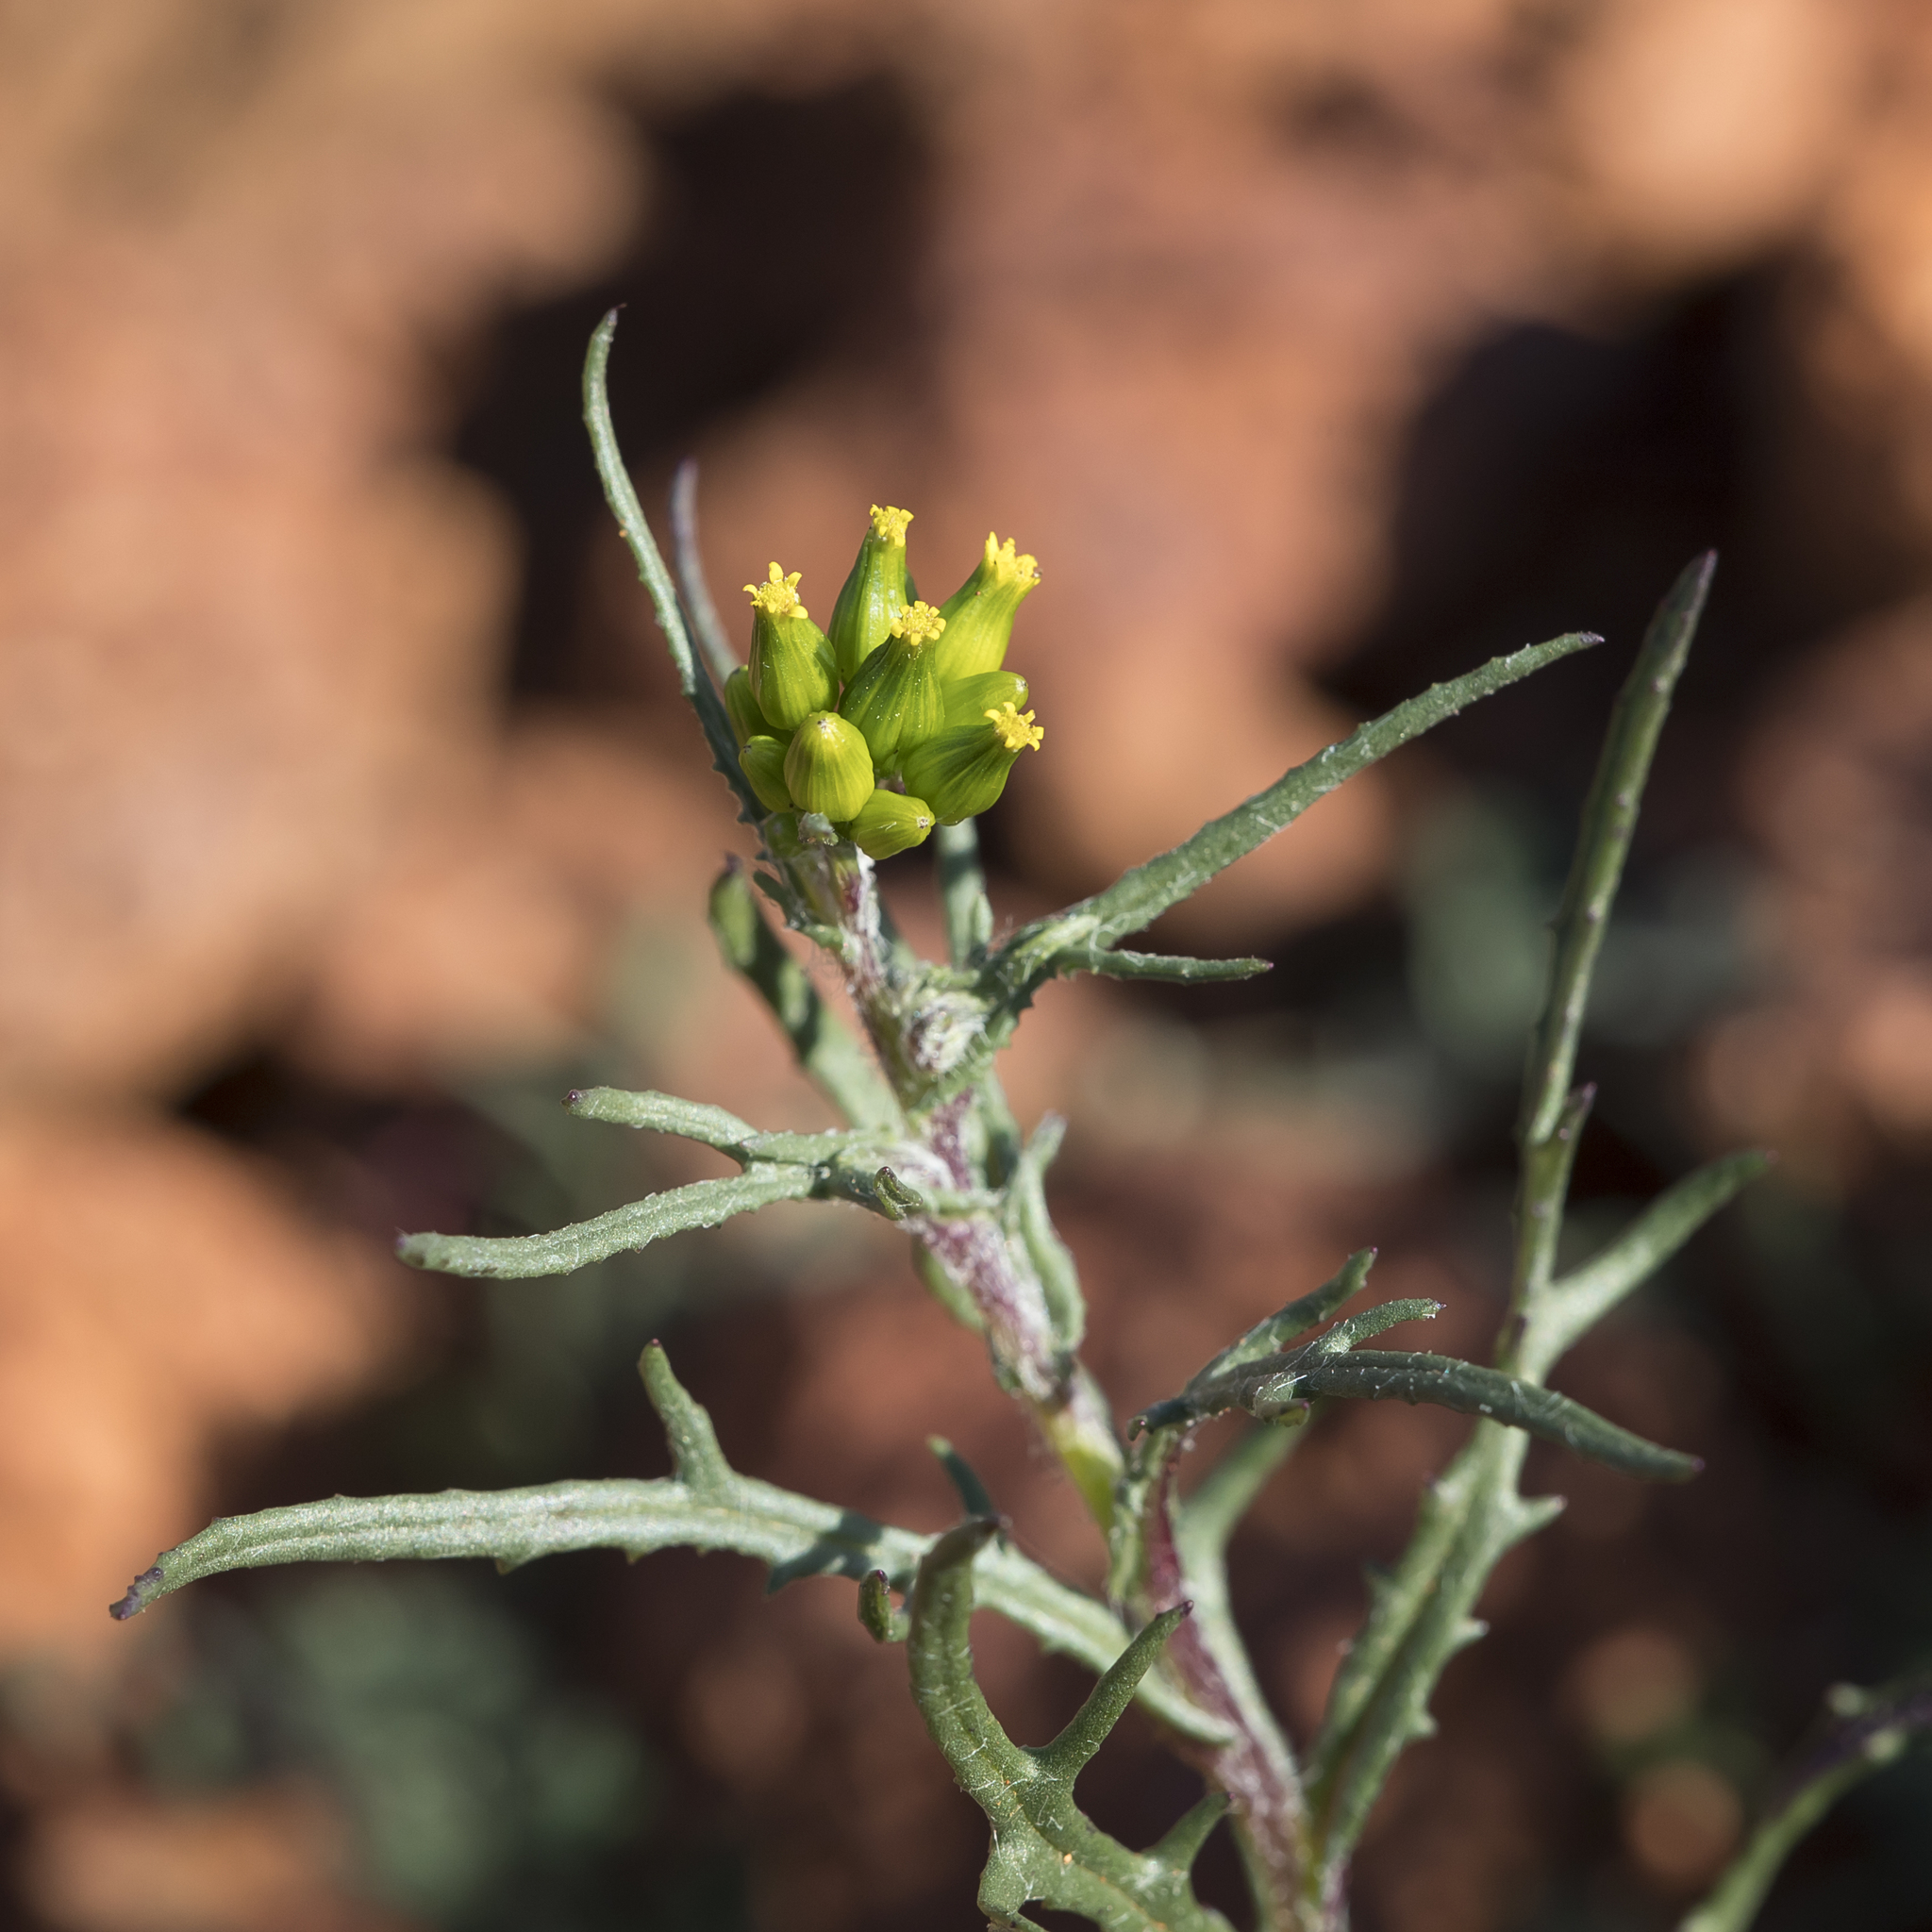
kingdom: Plantae
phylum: Tracheophyta
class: Magnoliopsida
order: Asterales
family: Asteraceae
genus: Senecio
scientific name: Senecio quadridentatus
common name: Cotton fireweed
